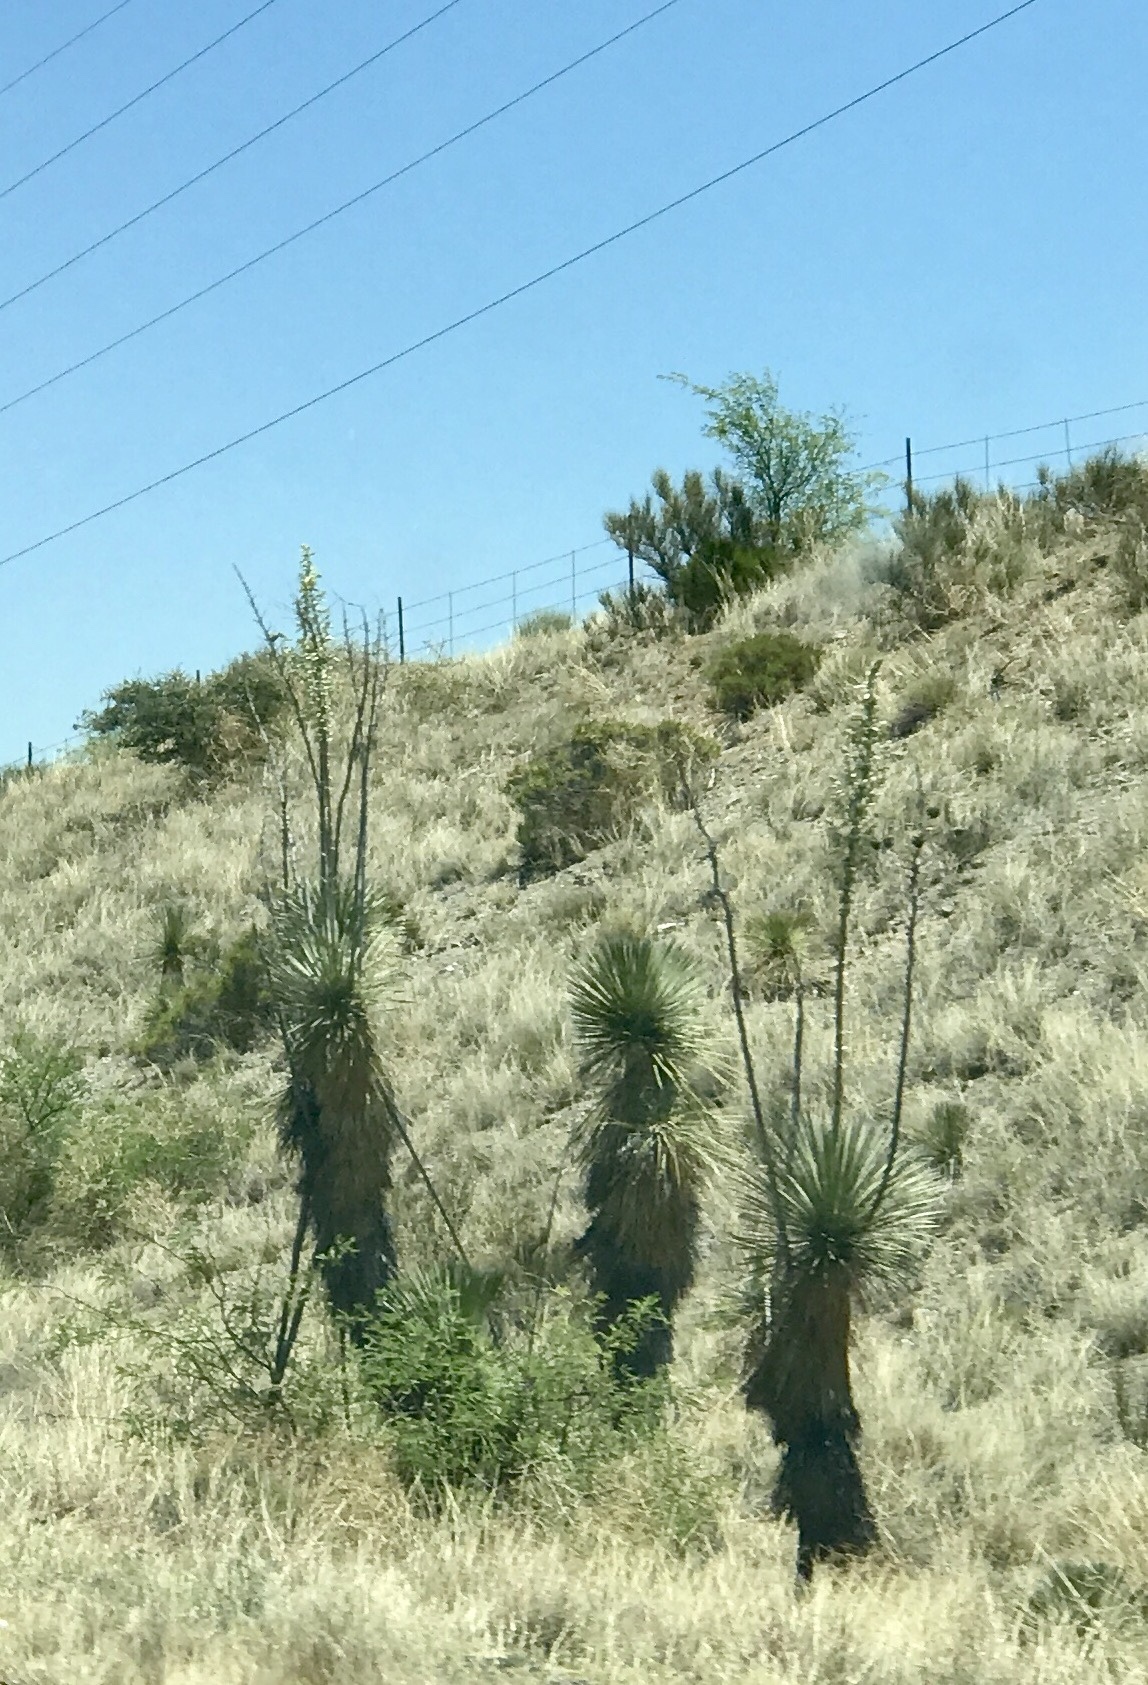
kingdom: Plantae
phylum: Tracheophyta
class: Liliopsida
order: Asparagales
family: Asparagaceae
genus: Yucca
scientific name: Yucca elata
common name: Palmella
